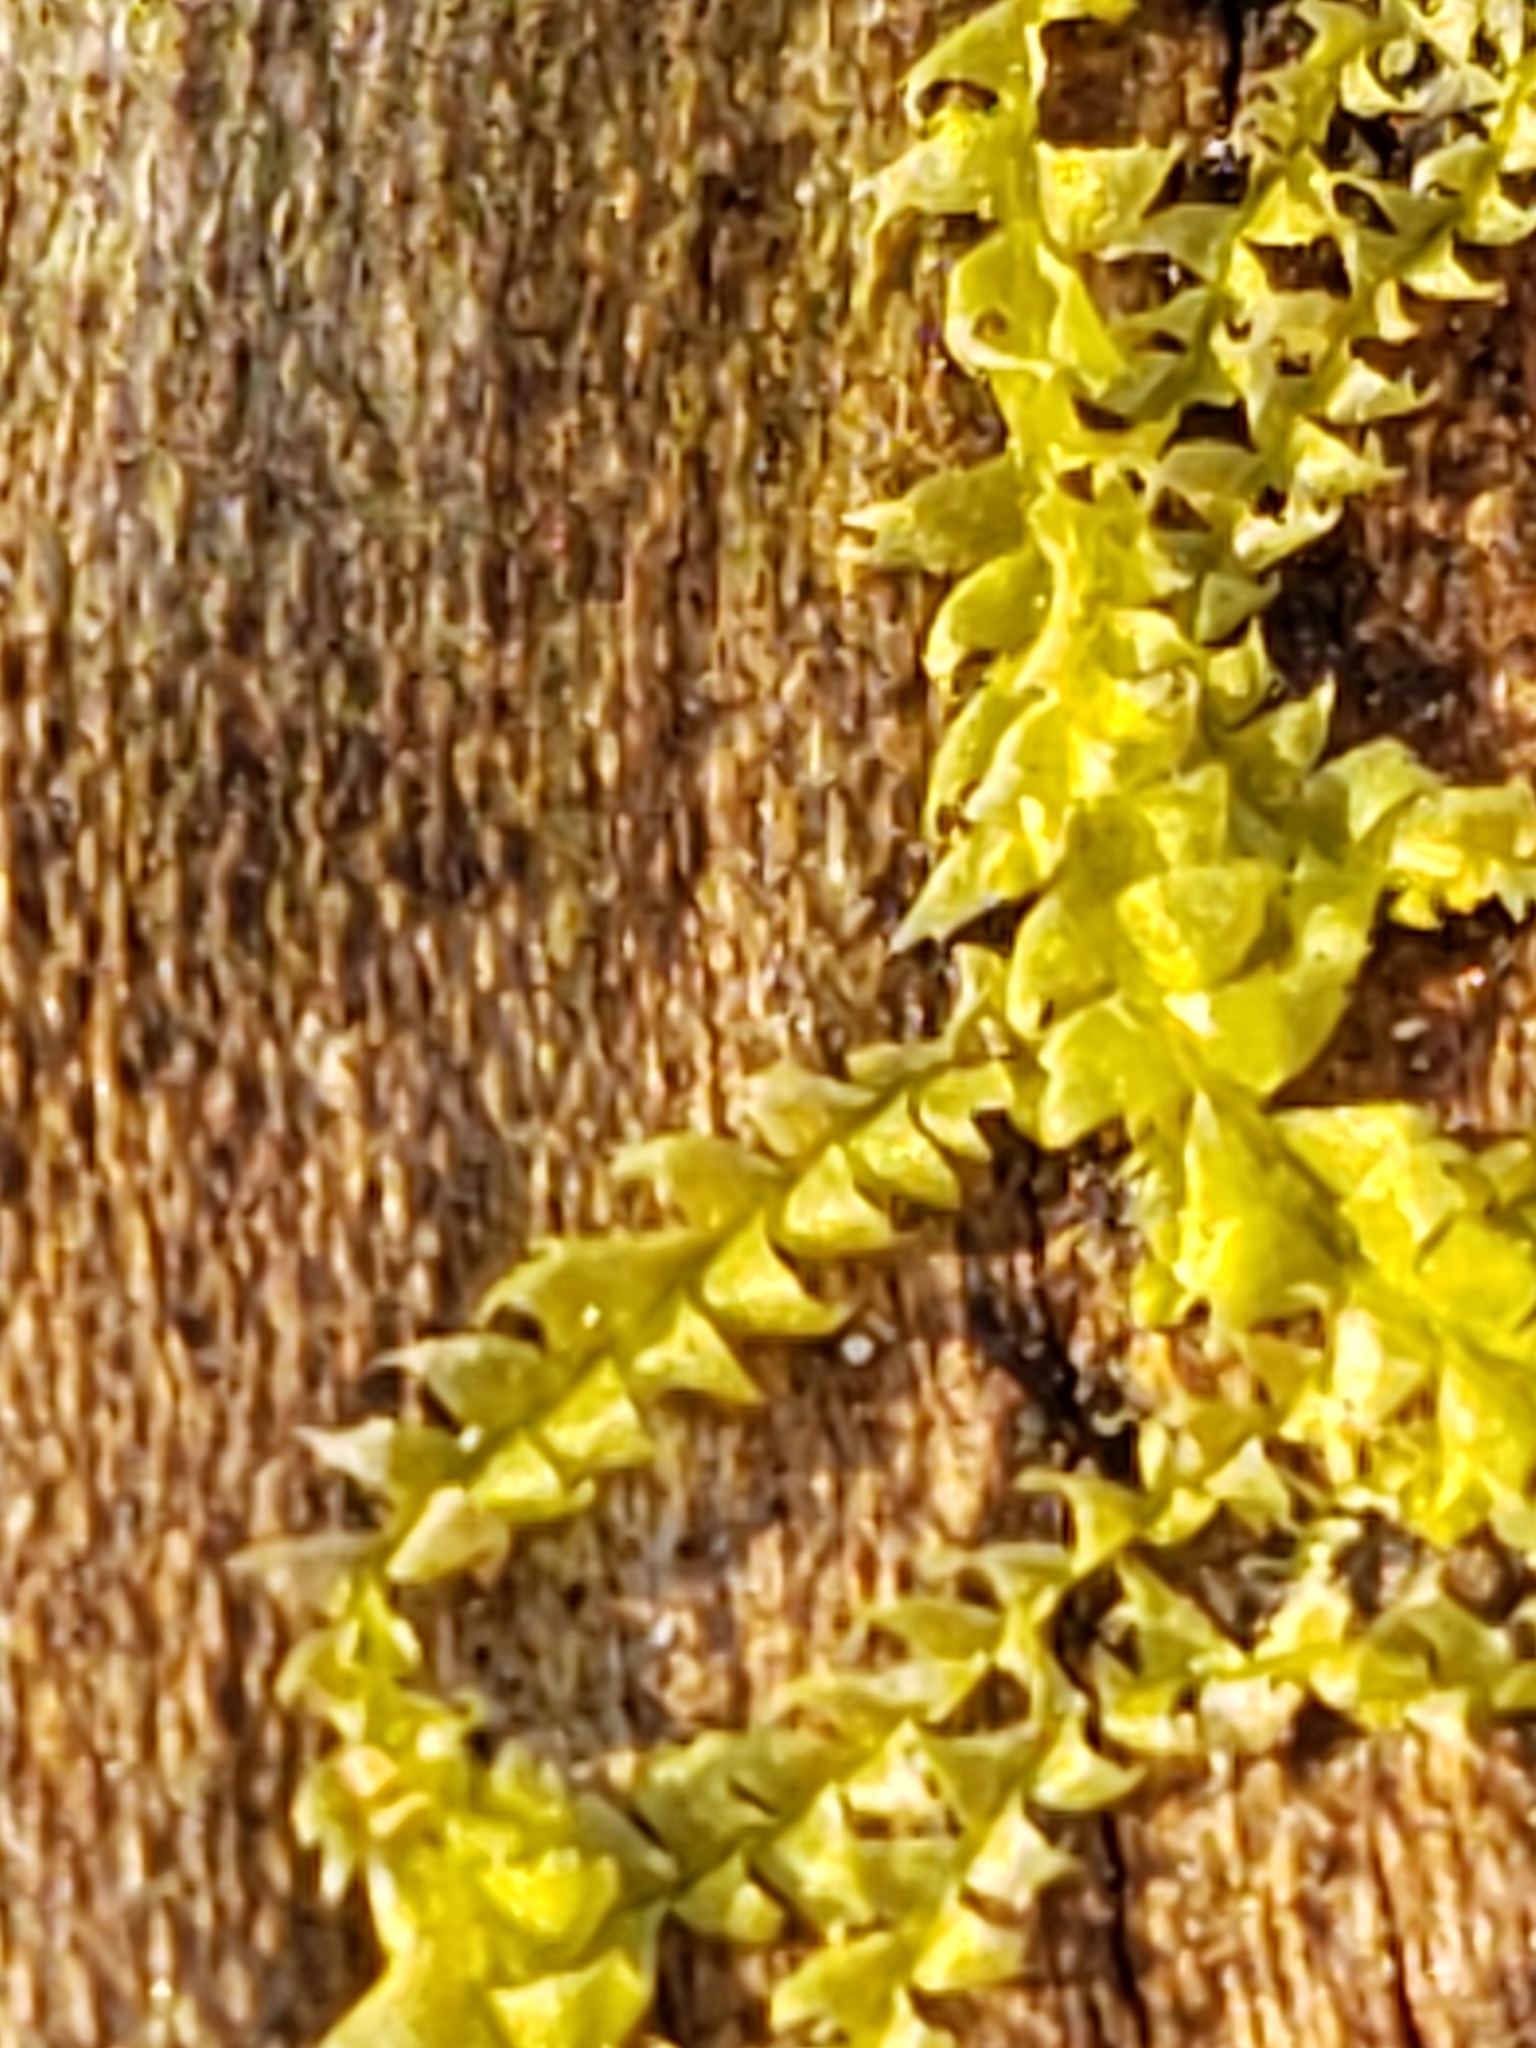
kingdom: Plantae
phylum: Marchantiophyta
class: Jungermanniopsida
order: Jungermanniales
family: Lophocoleaceae
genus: Lophocolea
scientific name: Lophocolea heterophylla
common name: Variable-leaved crestwort
